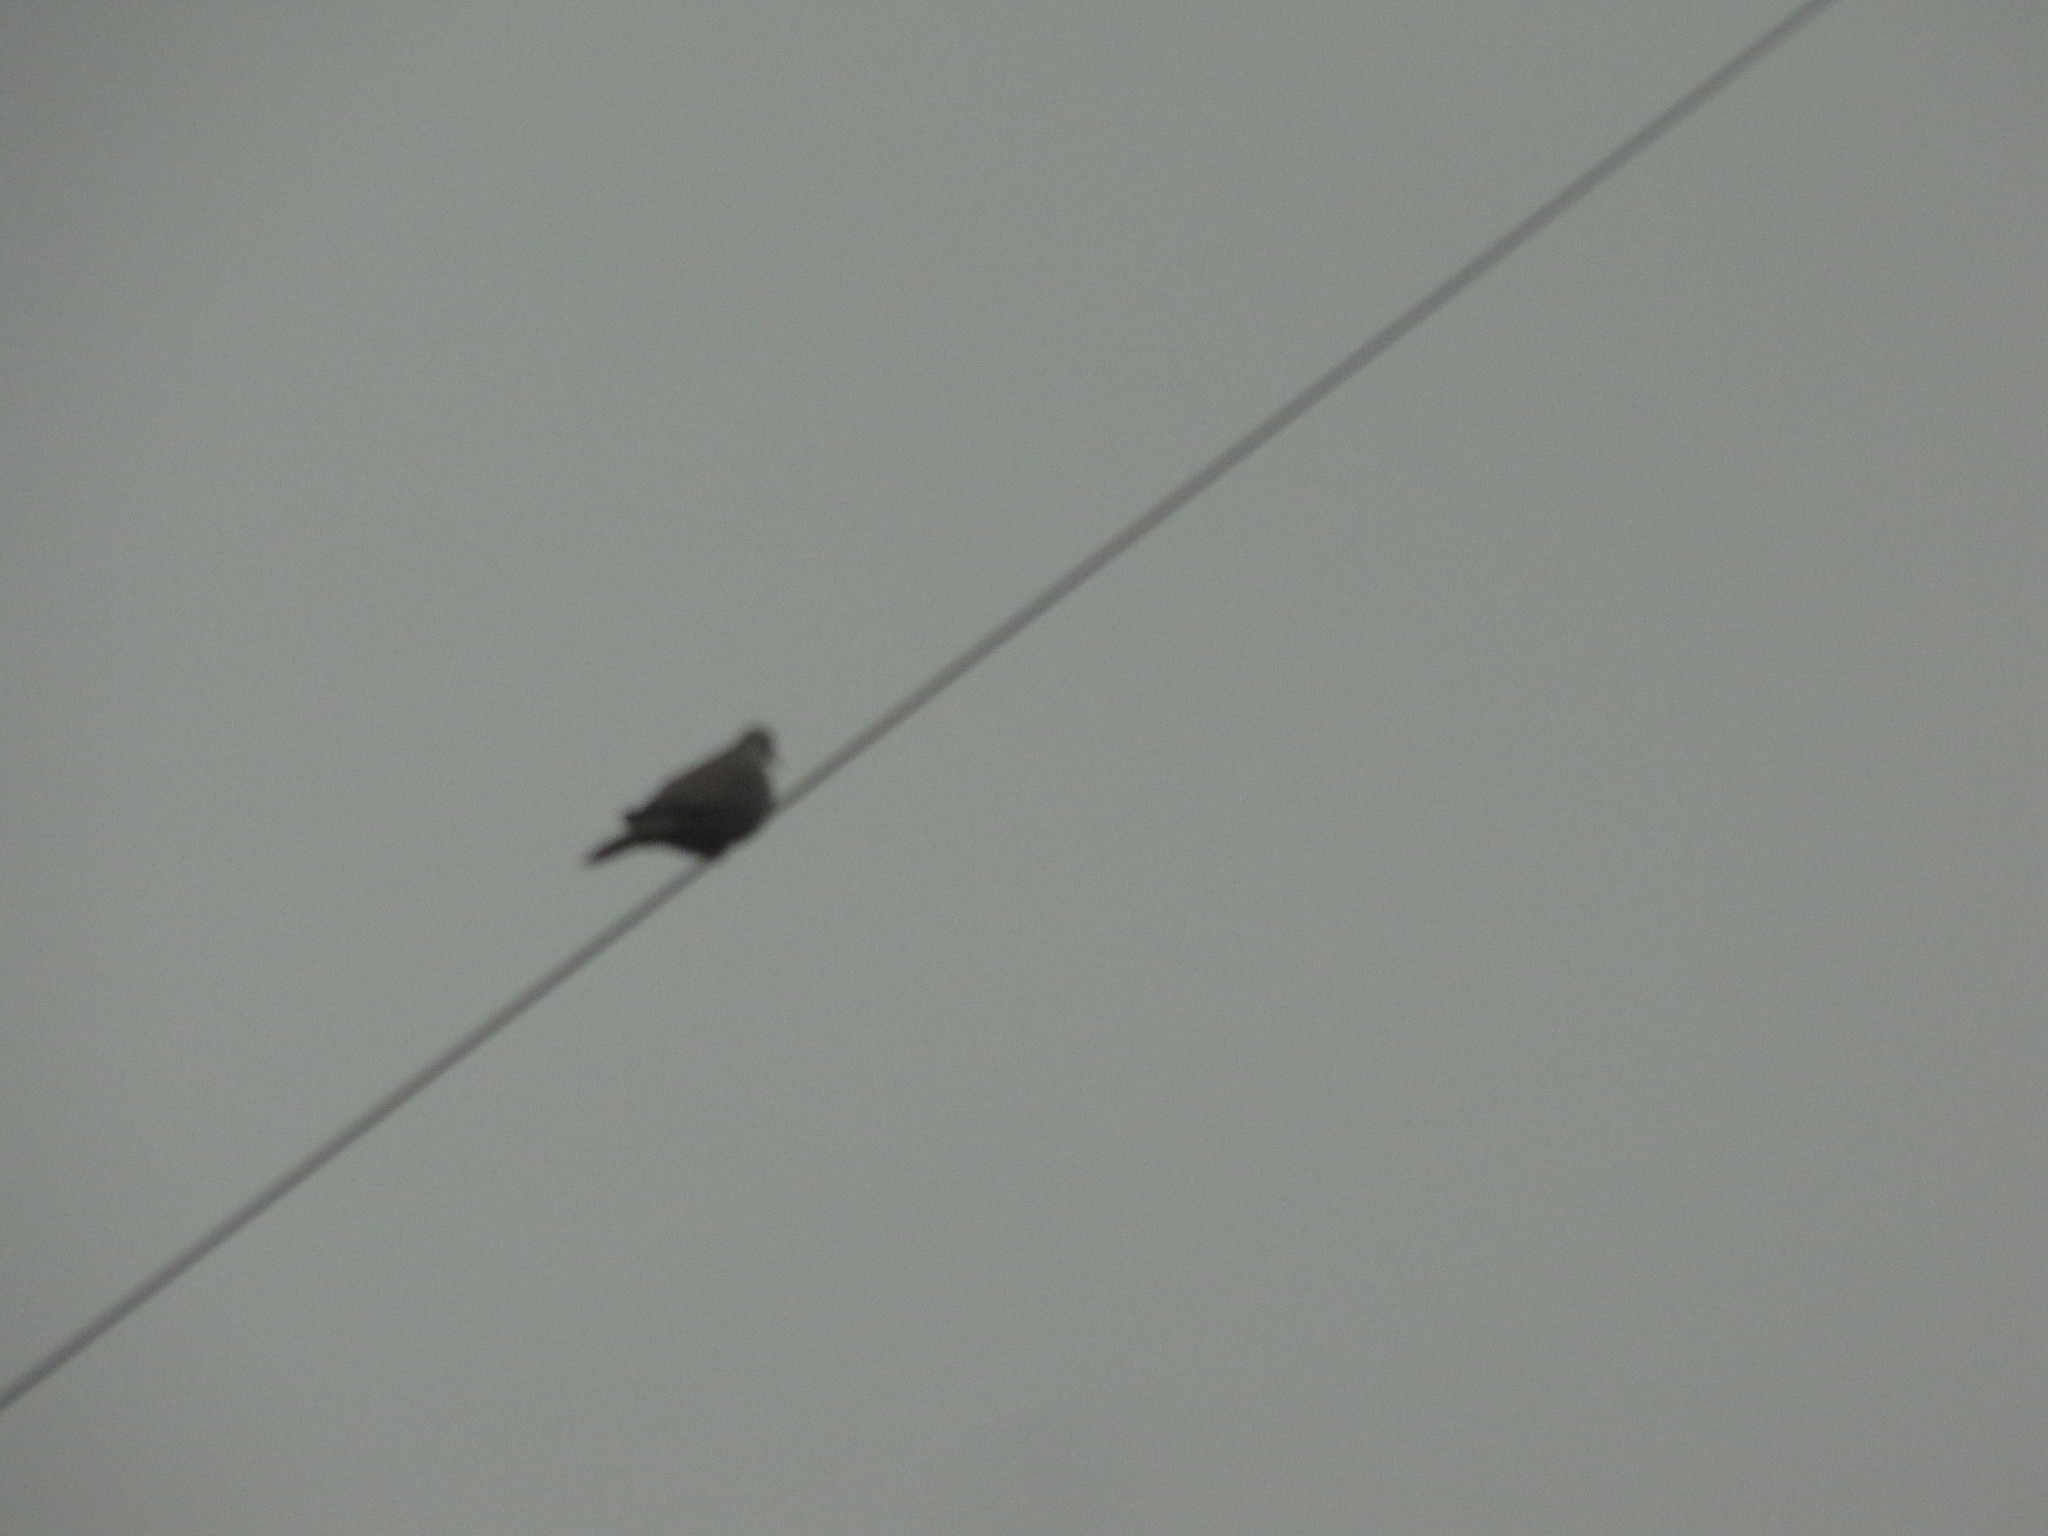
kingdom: Animalia
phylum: Chordata
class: Aves
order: Columbiformes
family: Columbidae
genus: Streptopelia
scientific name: Streptopelia decaocto
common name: Eurasian collared dove
